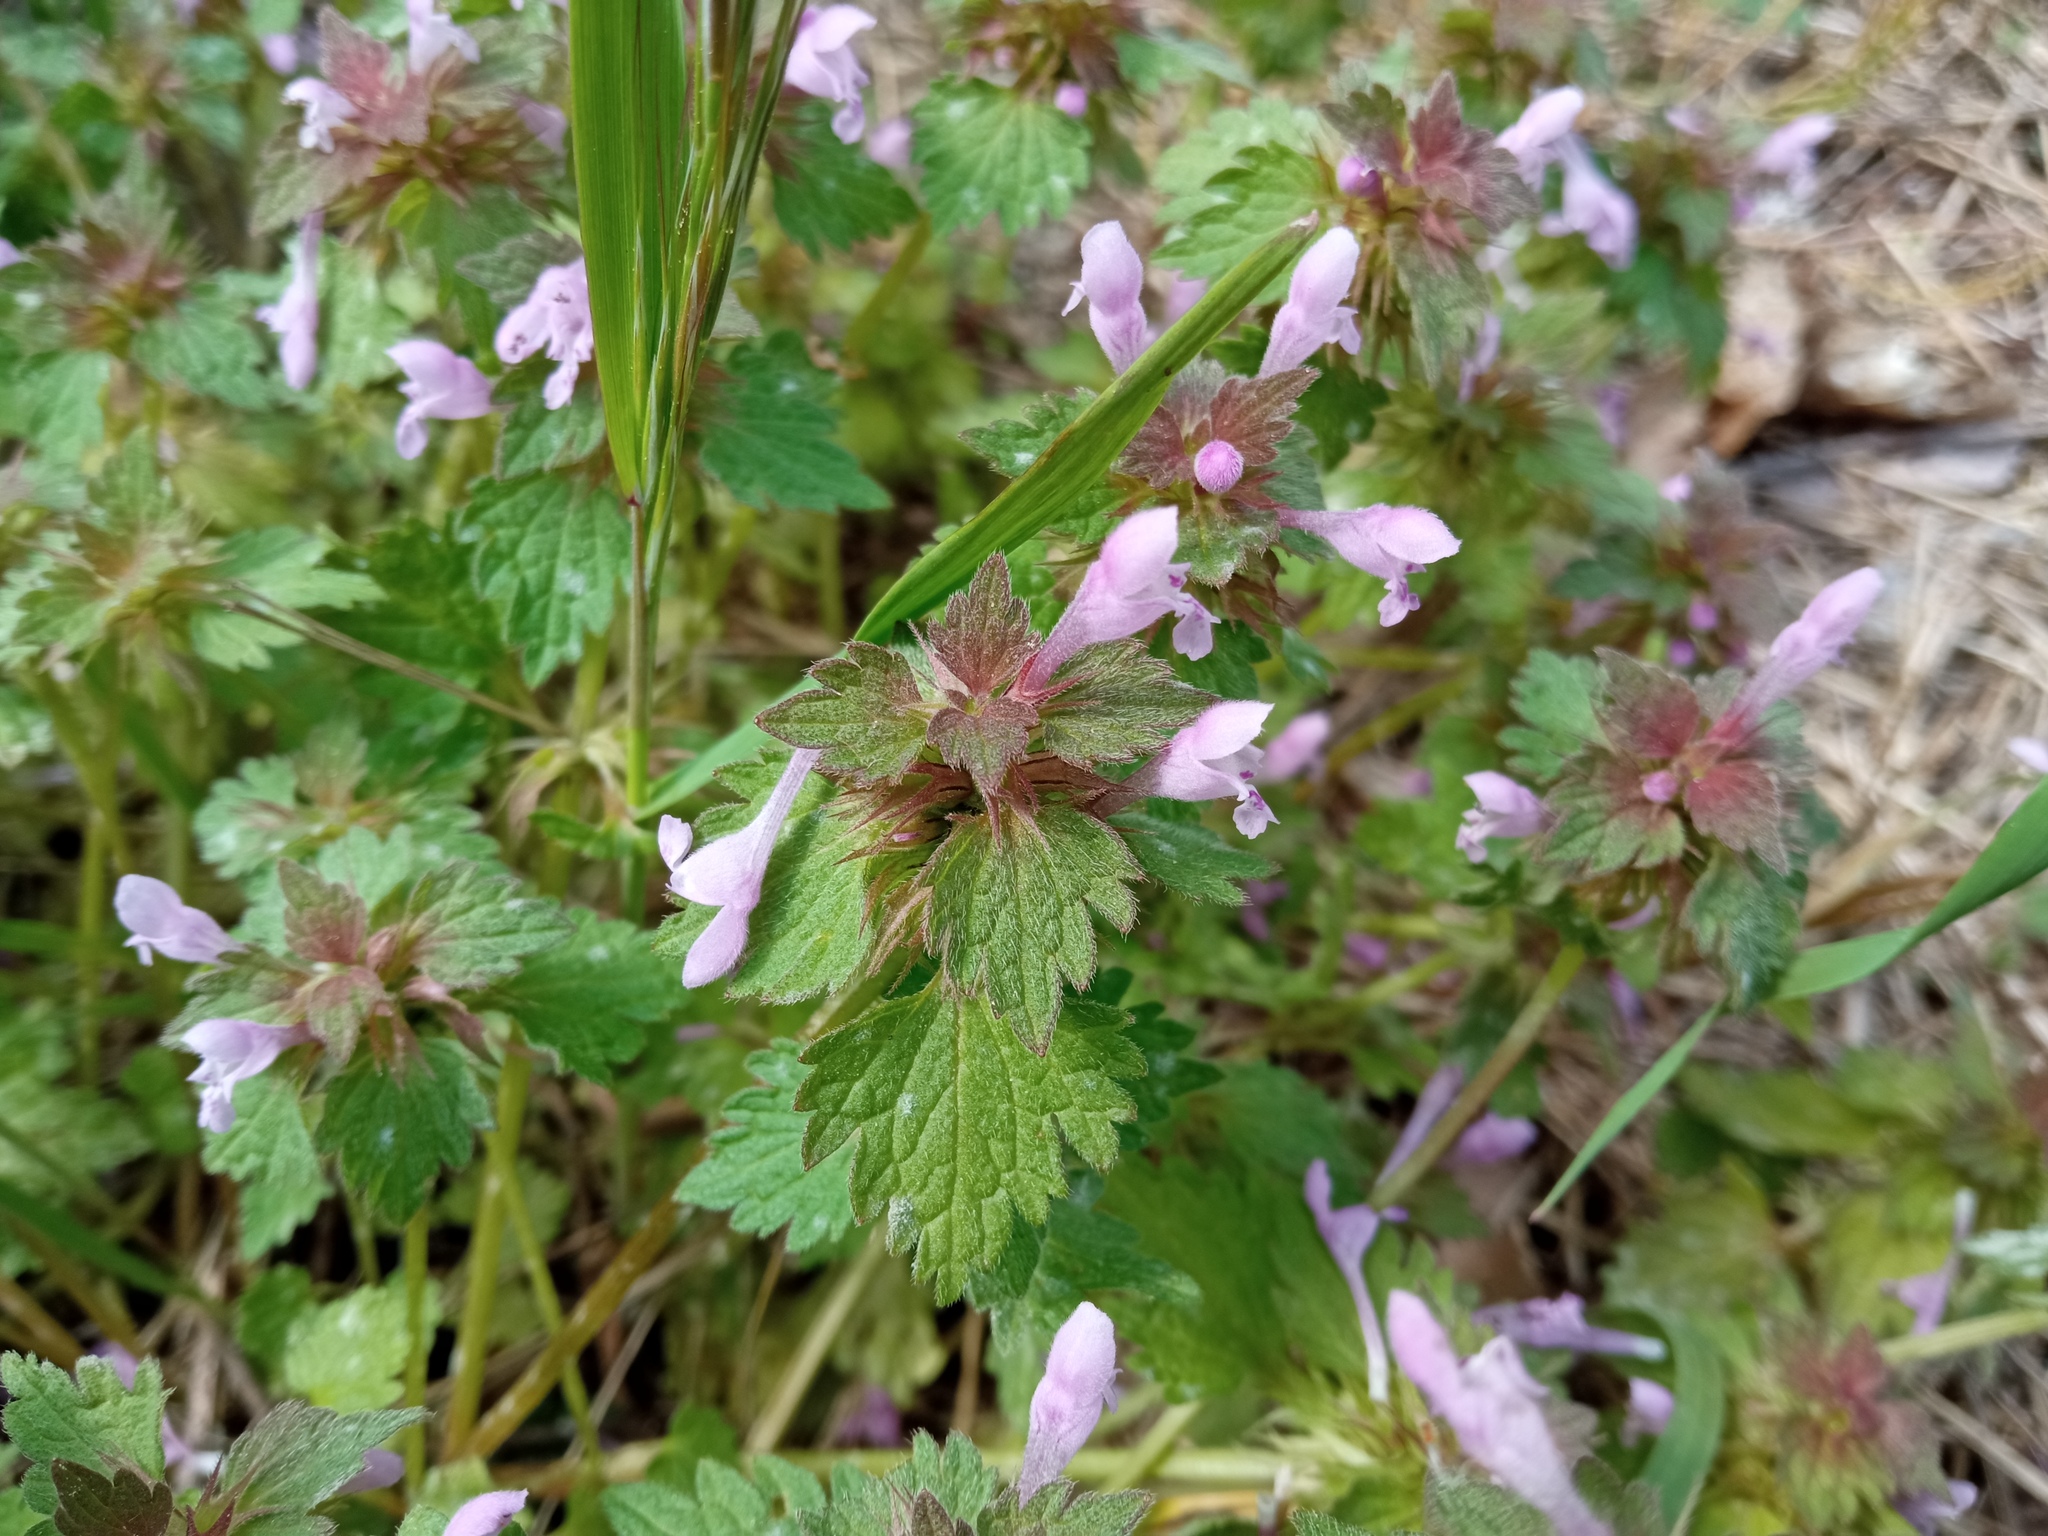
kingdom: Plantae
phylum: Tracheophyta
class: Magnoliopsida
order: Lamiales
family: Lamiaceae
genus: Lamium
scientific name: Lamium hybridum
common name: Cut-leaved dead-nettle
